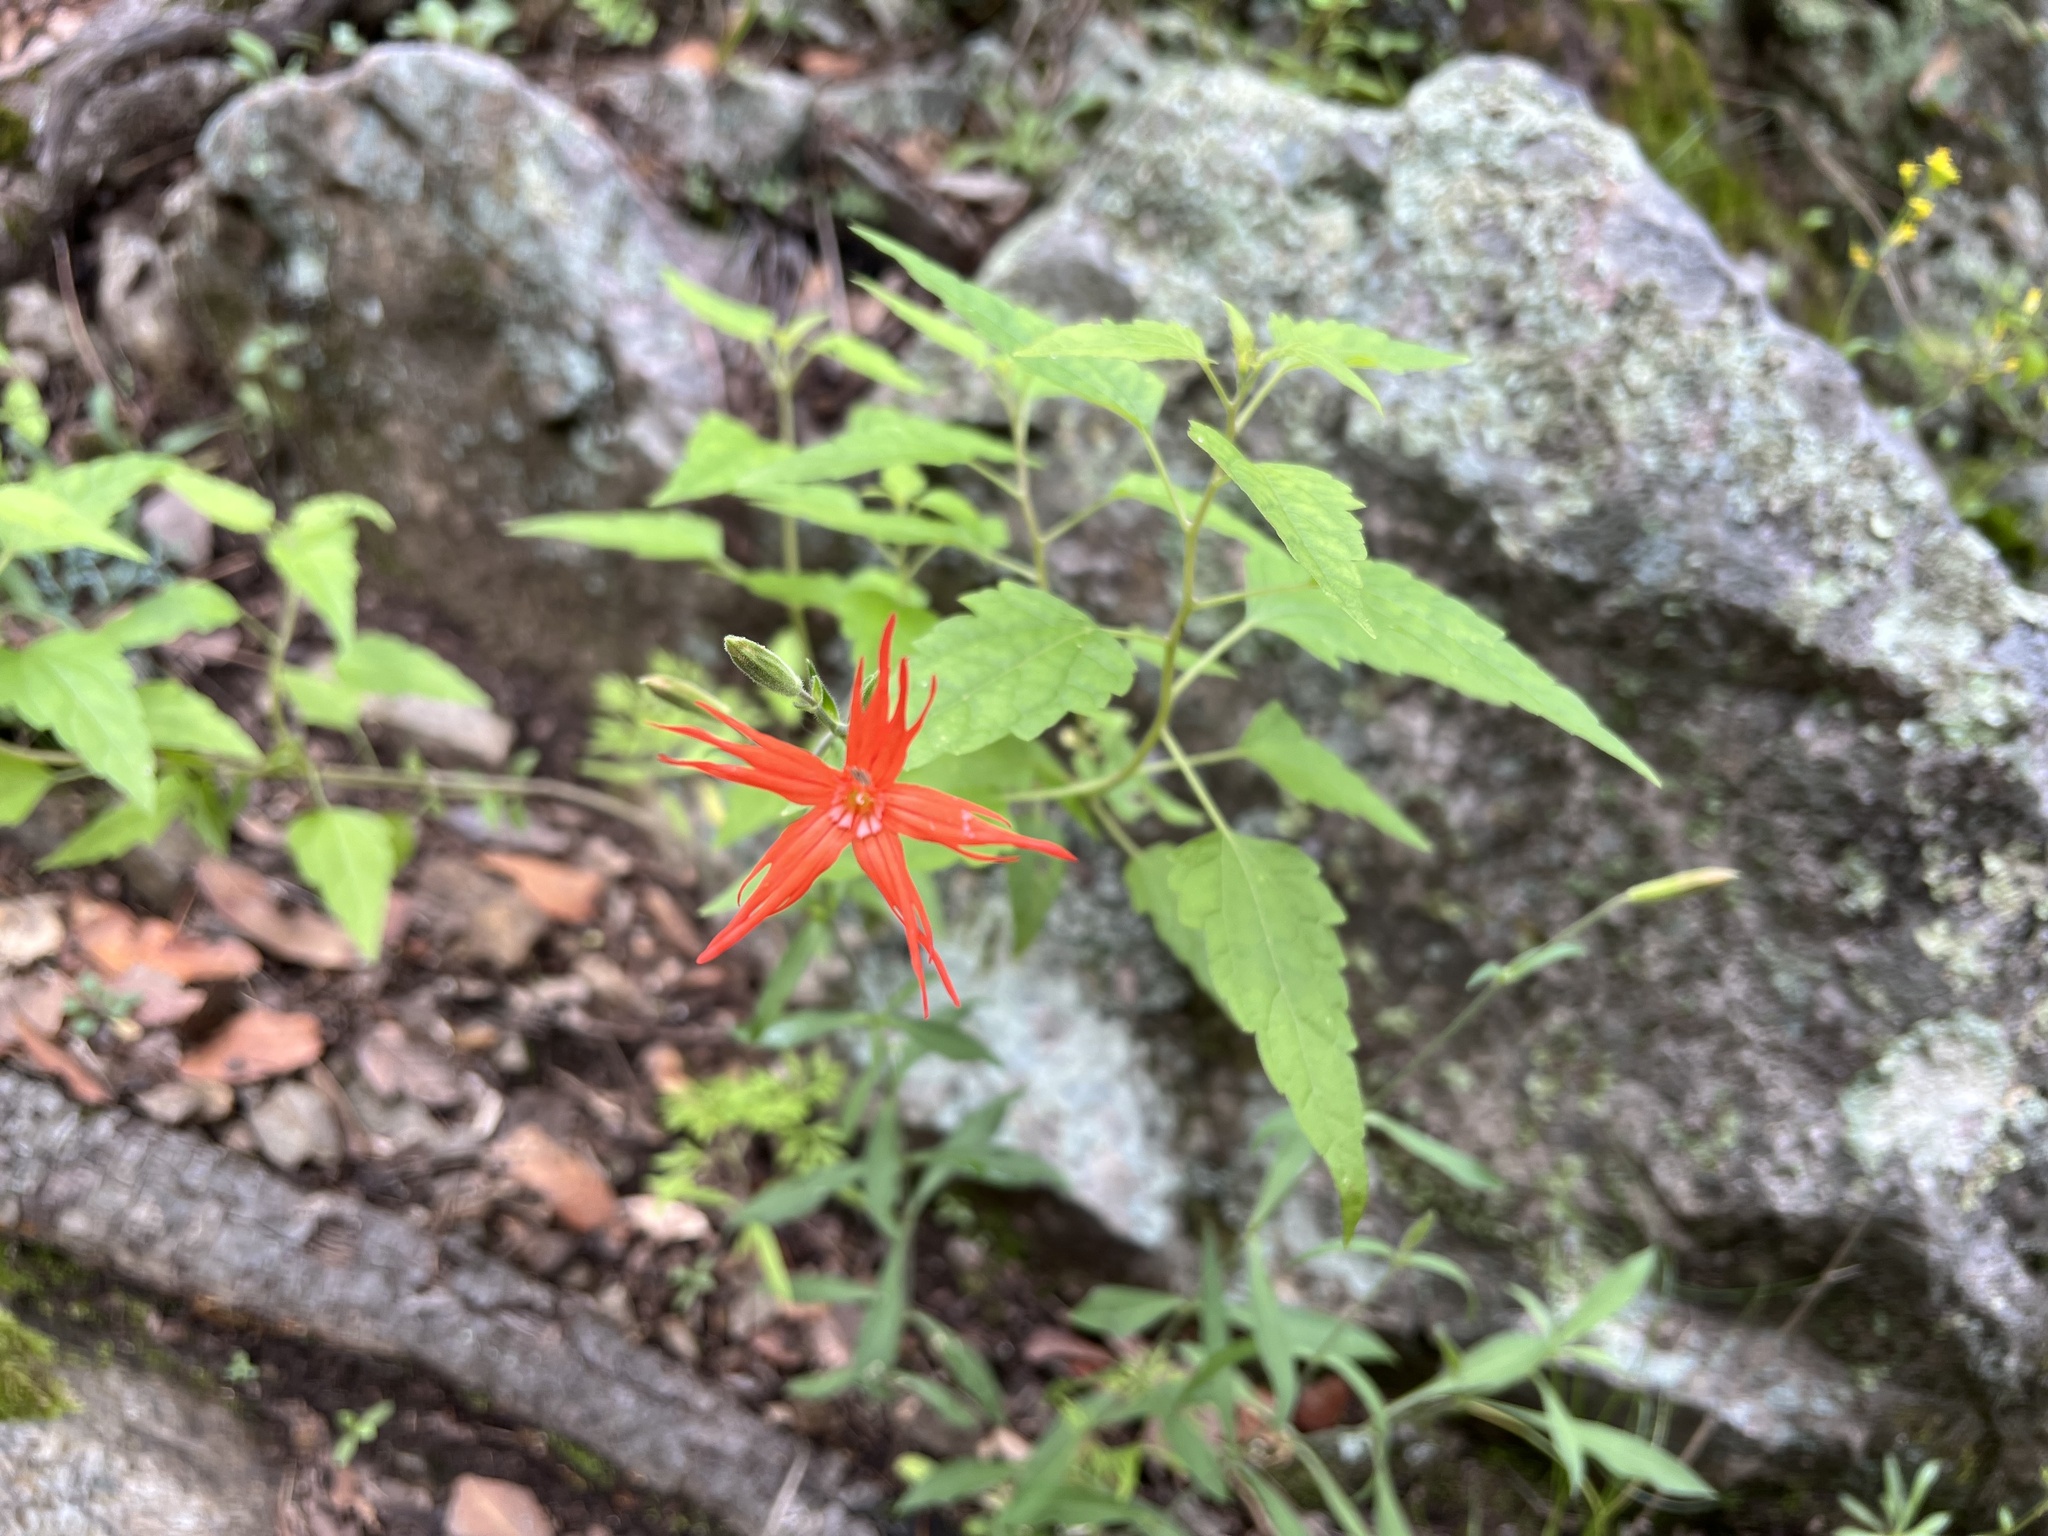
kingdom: Plantae
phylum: Tracheophyta
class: Magnoliopsida
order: Caryophyllales
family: Caryophyllaceae
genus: Silene
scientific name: Silene laciniata
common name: Indian-pink
